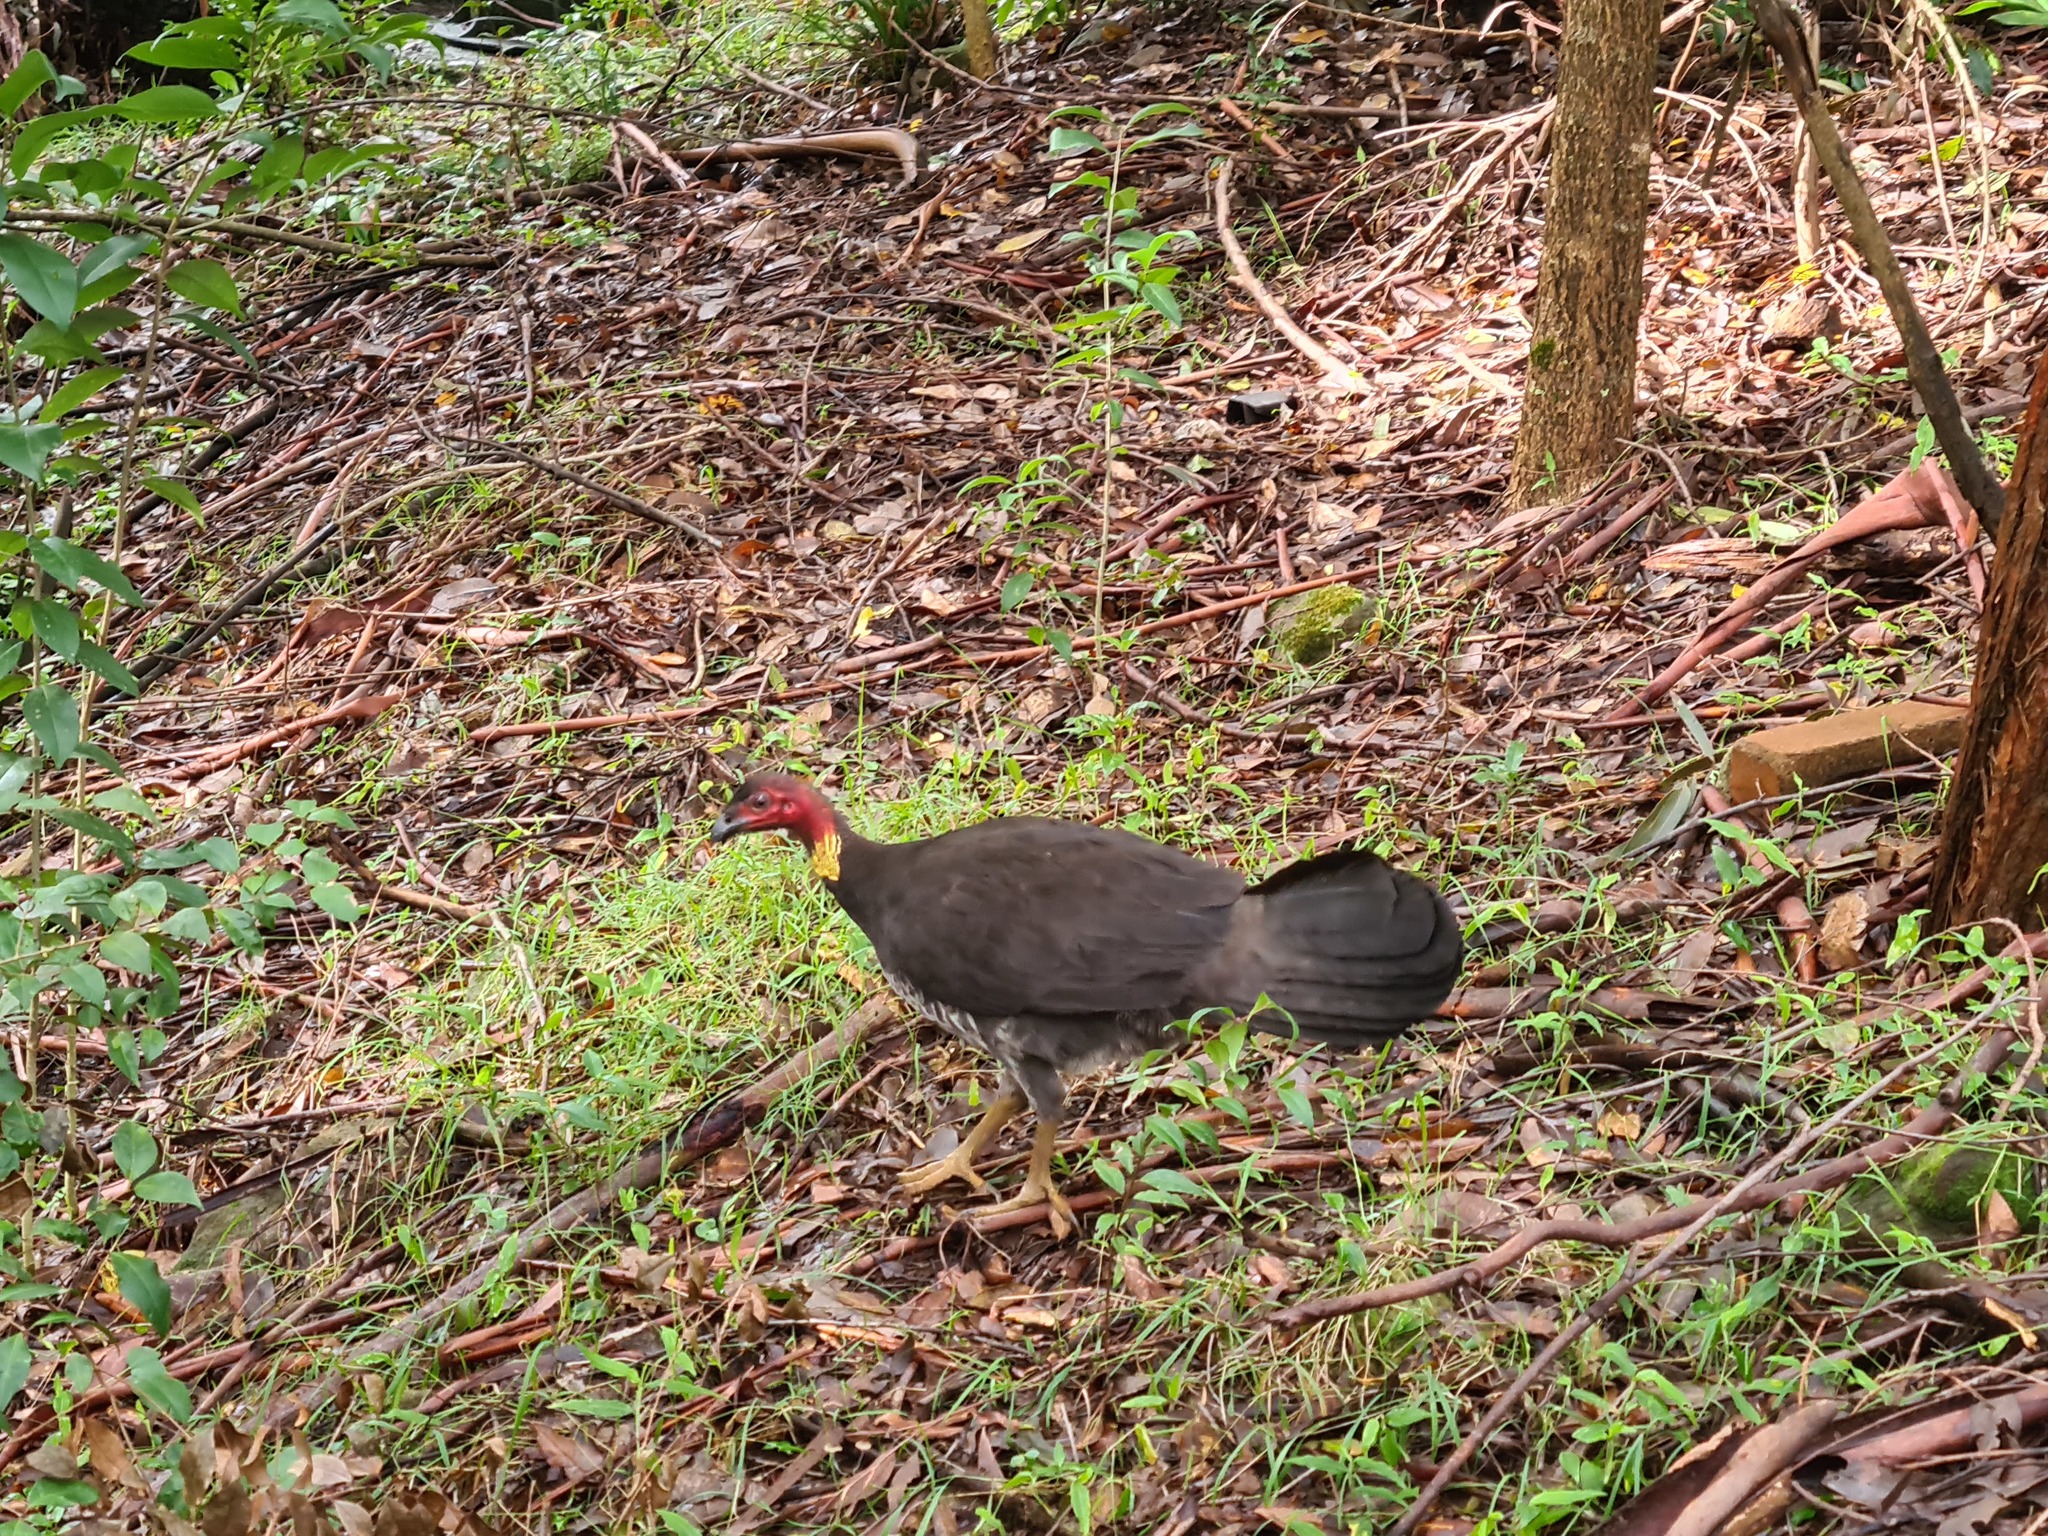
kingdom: Animalia
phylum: Chordata
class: Aves
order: Galliformes
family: Megapodiidae
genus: Alectura
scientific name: Alectura lathami
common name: Australian brushturkey
